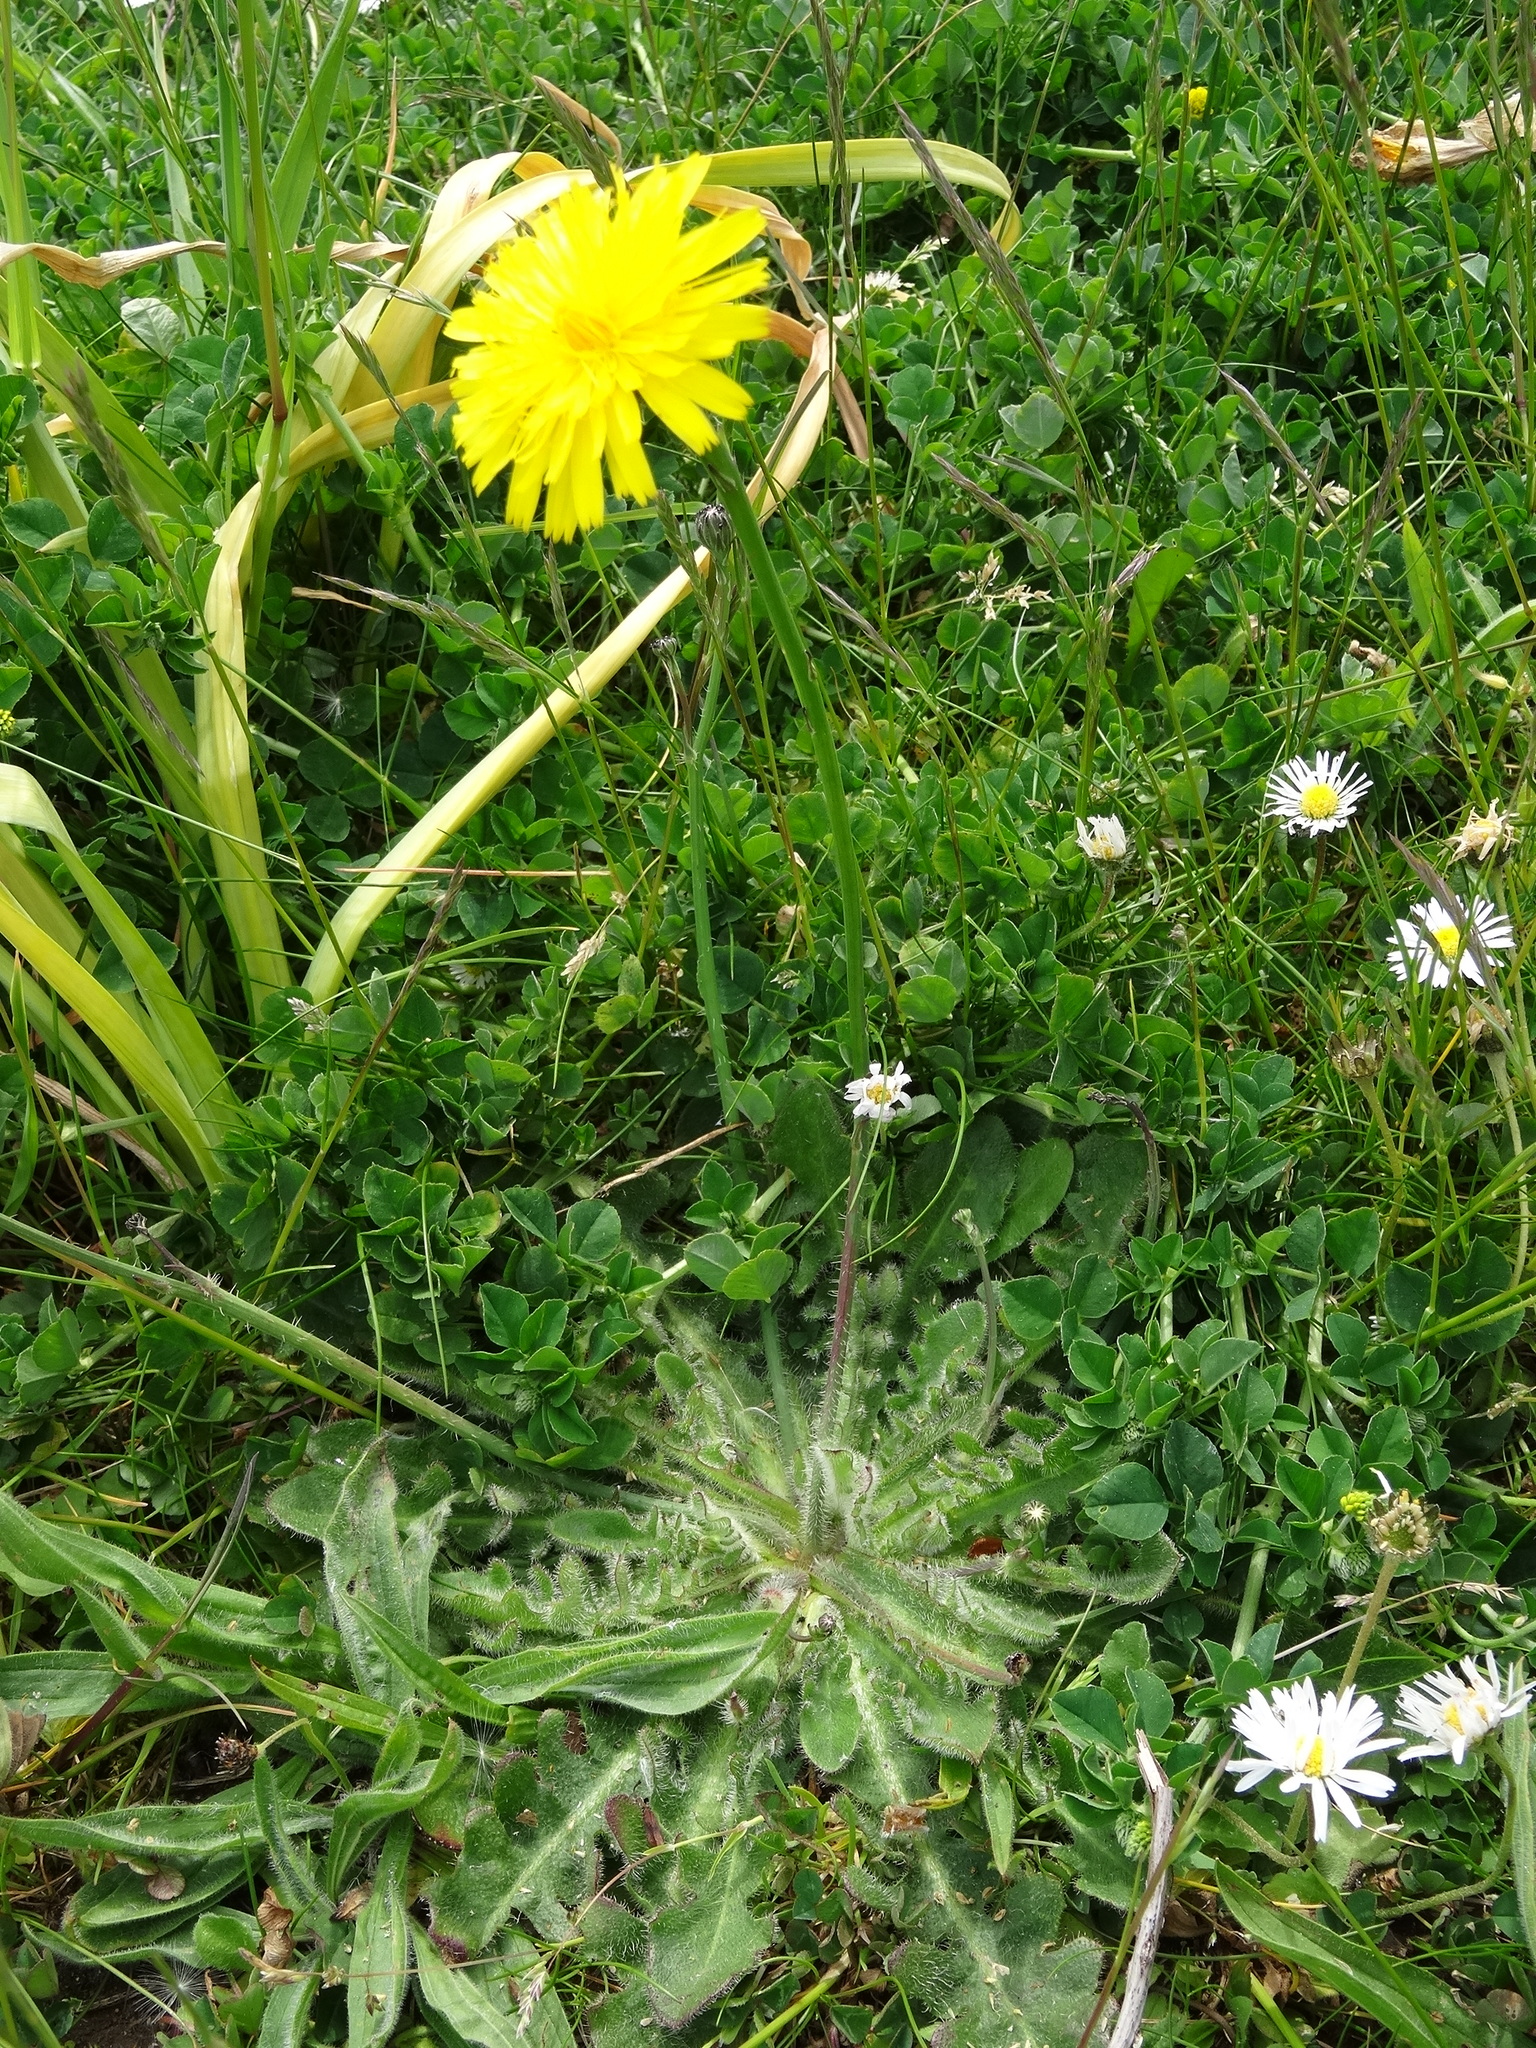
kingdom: Plantae
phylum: Tracheophyta
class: Magnoliopsida
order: Asterales
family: Asteraceae
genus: Hypochaeris
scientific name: Hypochaeris radicata
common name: Flatweed
